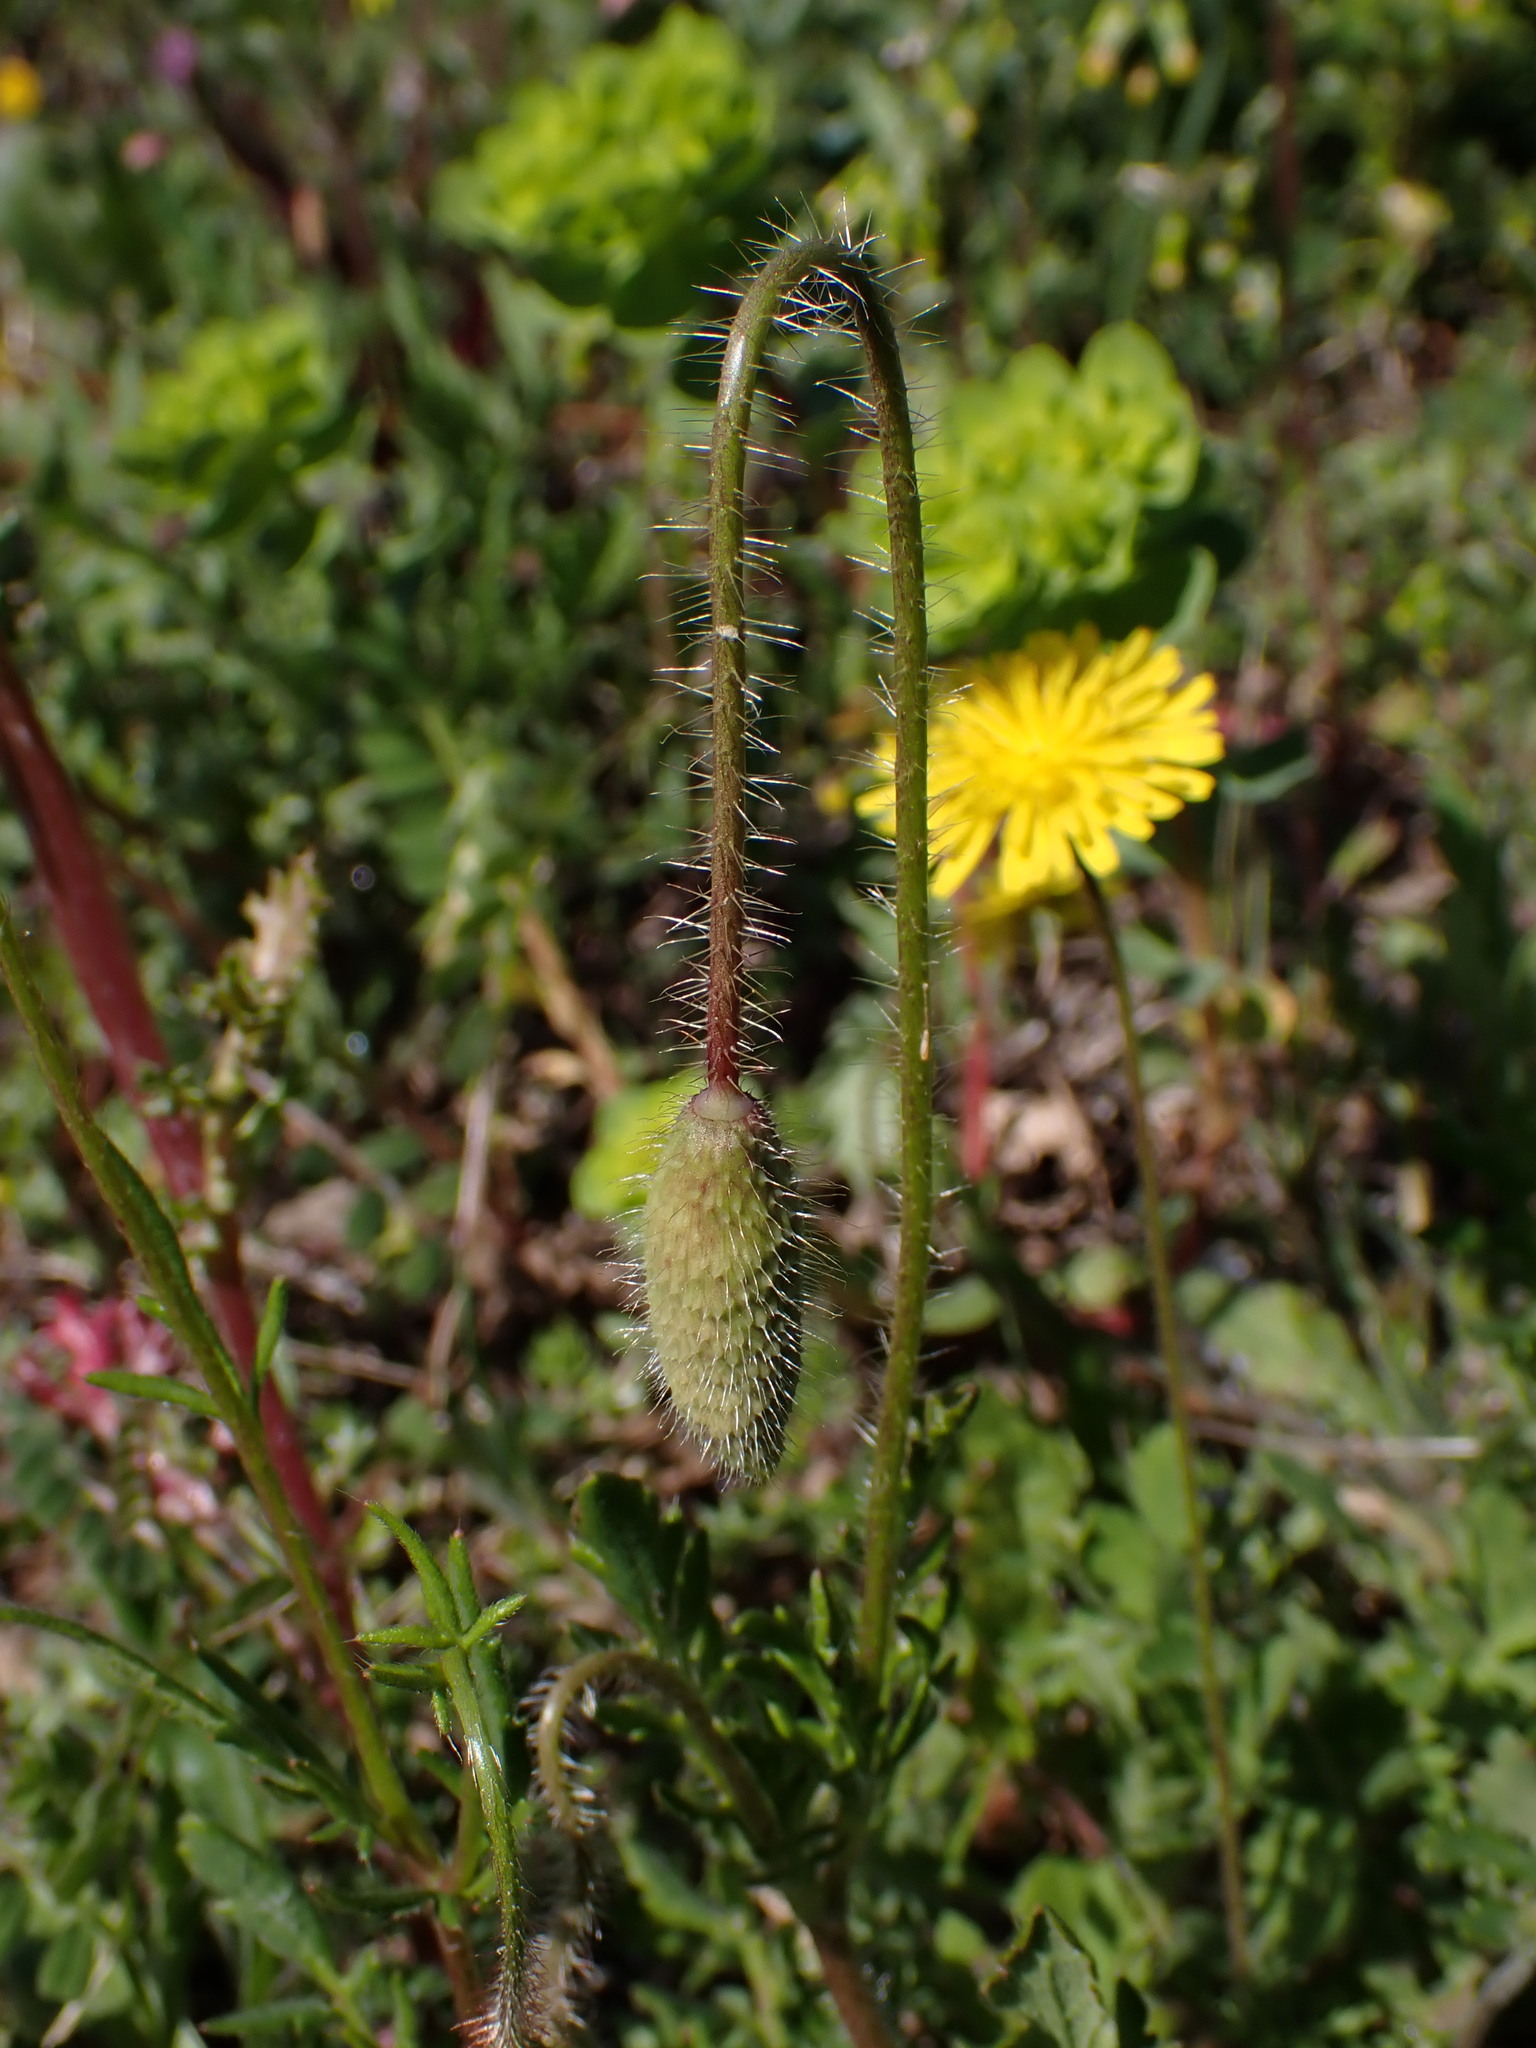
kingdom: Plantae
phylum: Tracheophyta
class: Magnoliopsida
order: Ranunculales
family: Papaveraceae
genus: Papaver
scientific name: Papaver rhoeas
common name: Corn poppy
